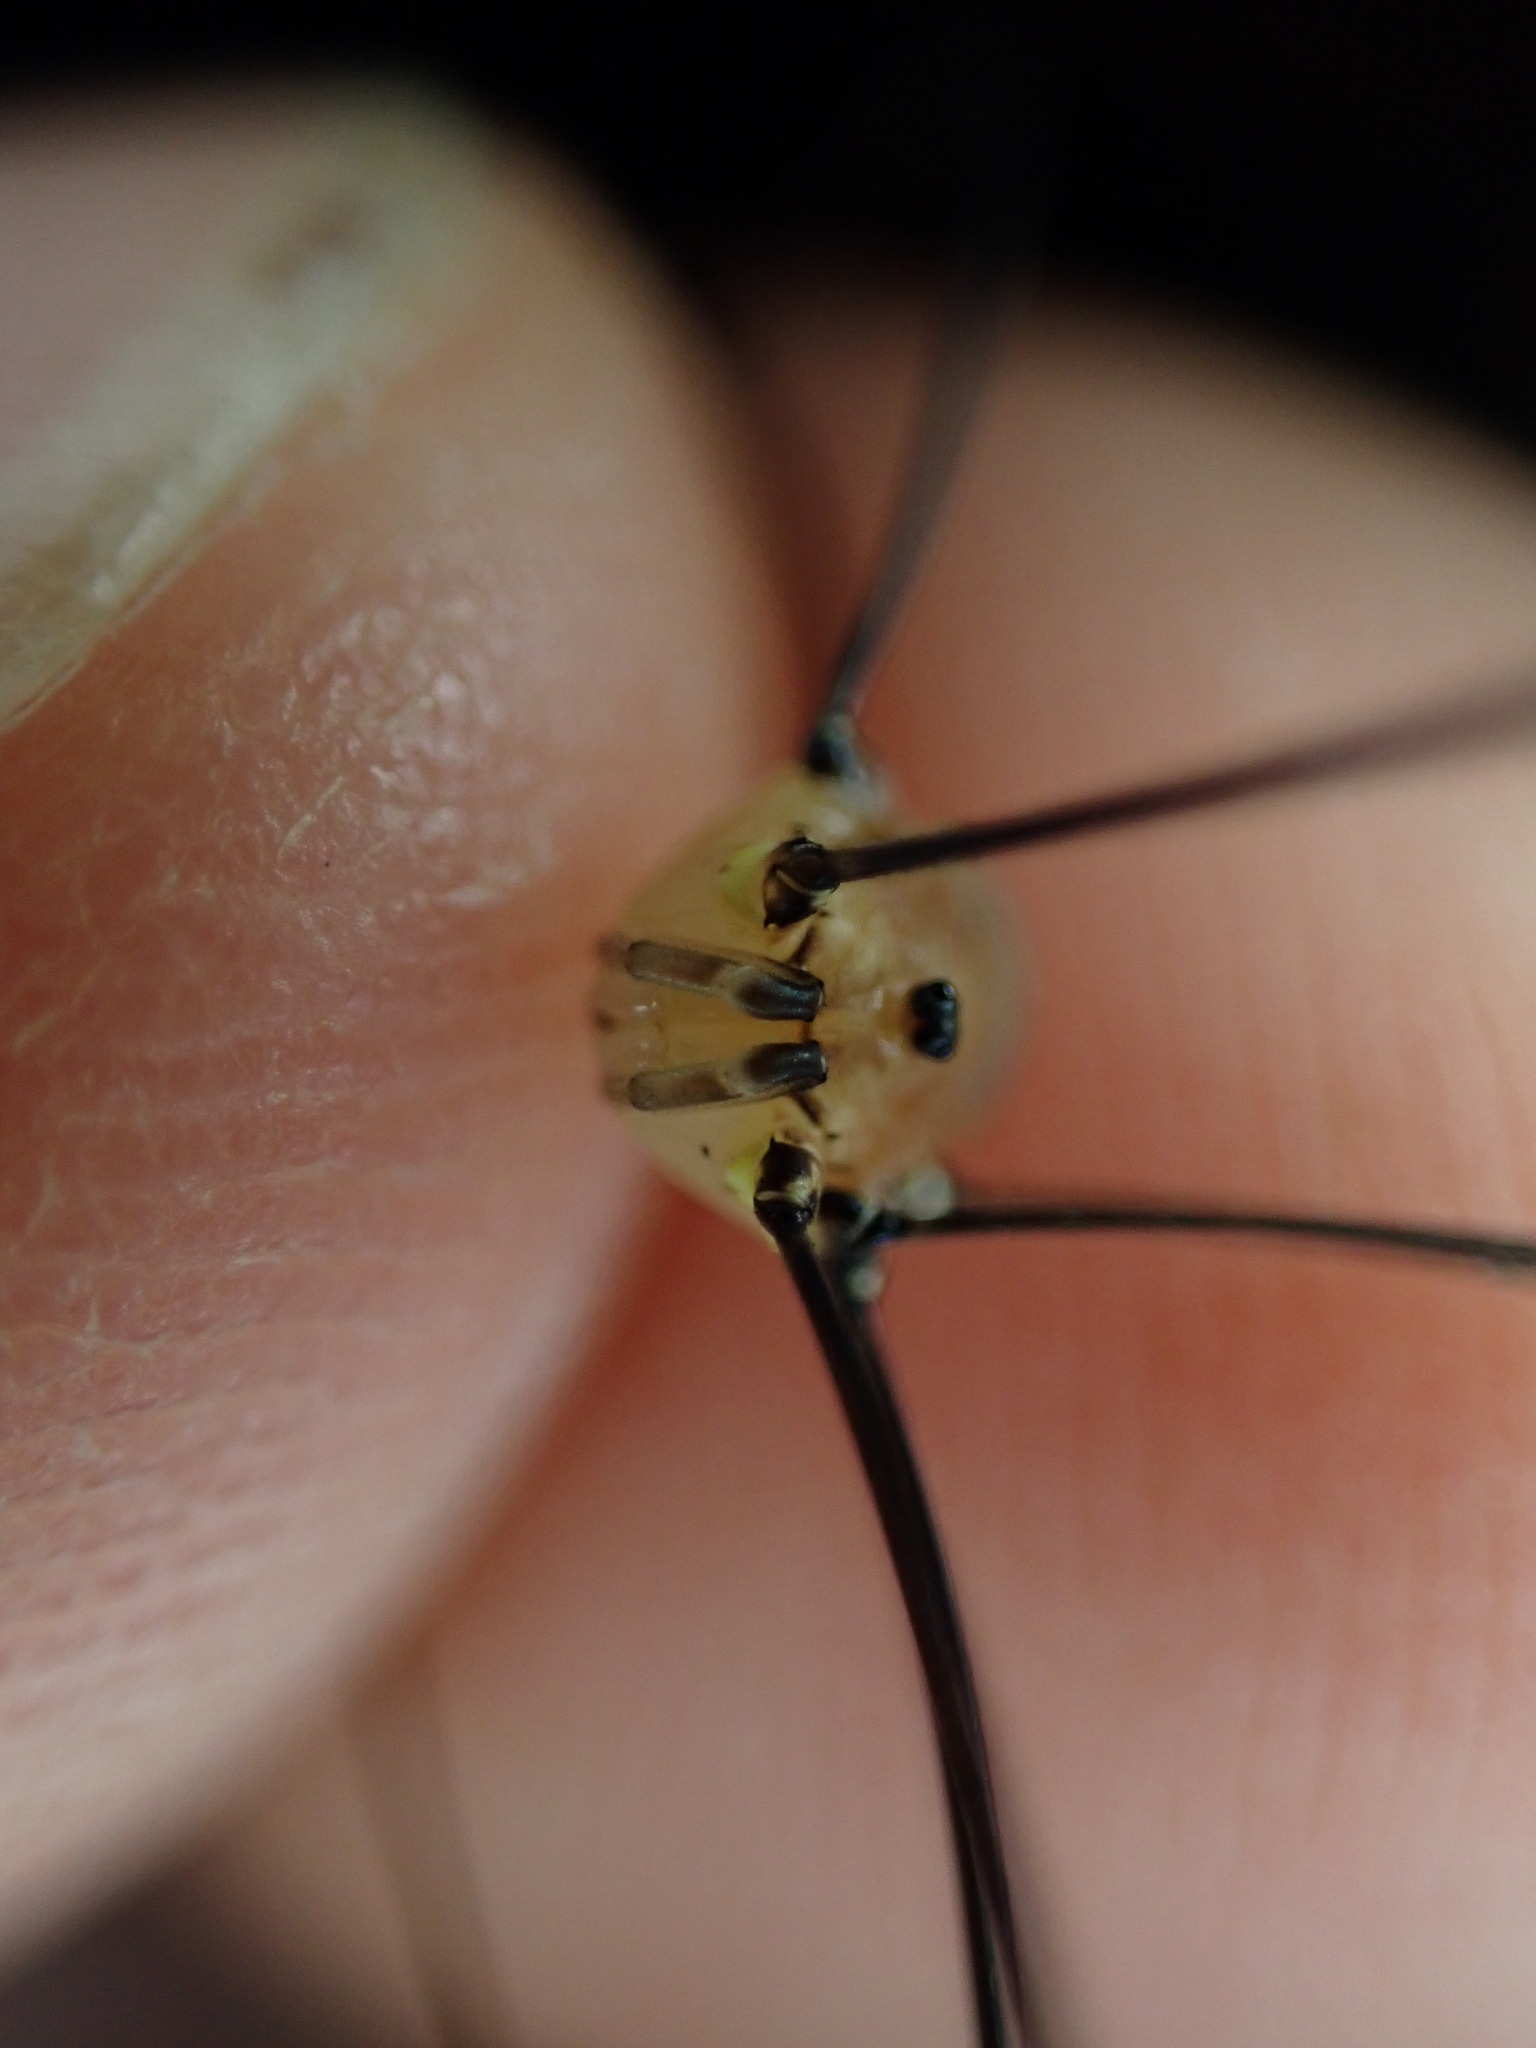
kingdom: Animalia
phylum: Arthropoda
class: Arachnida
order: Opiliones
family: Sclerosomatidae
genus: Leiobunum
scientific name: Leiobunum rotundum
